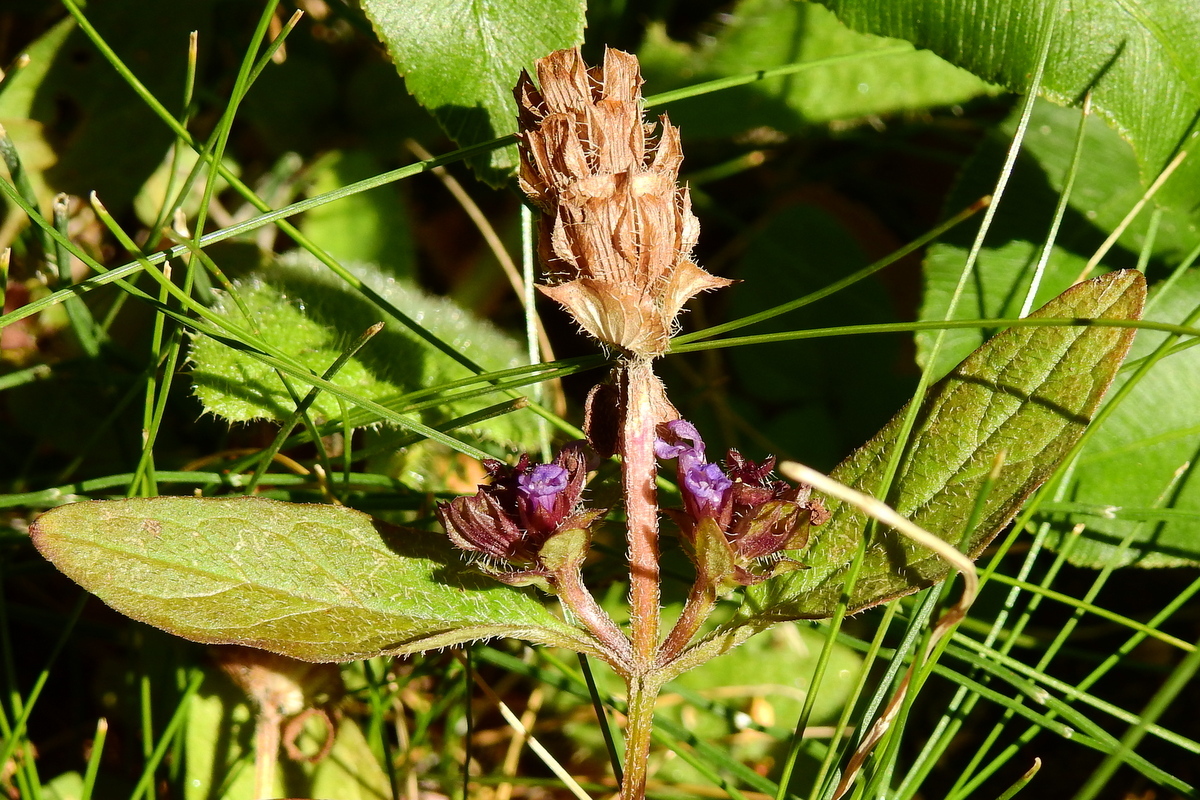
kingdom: Plantae
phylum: Tracheophyta
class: Magnoliopsida
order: Lamiales
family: Lamiaceae
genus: Prunella
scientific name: Prunella vulgaris
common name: Heal-all
